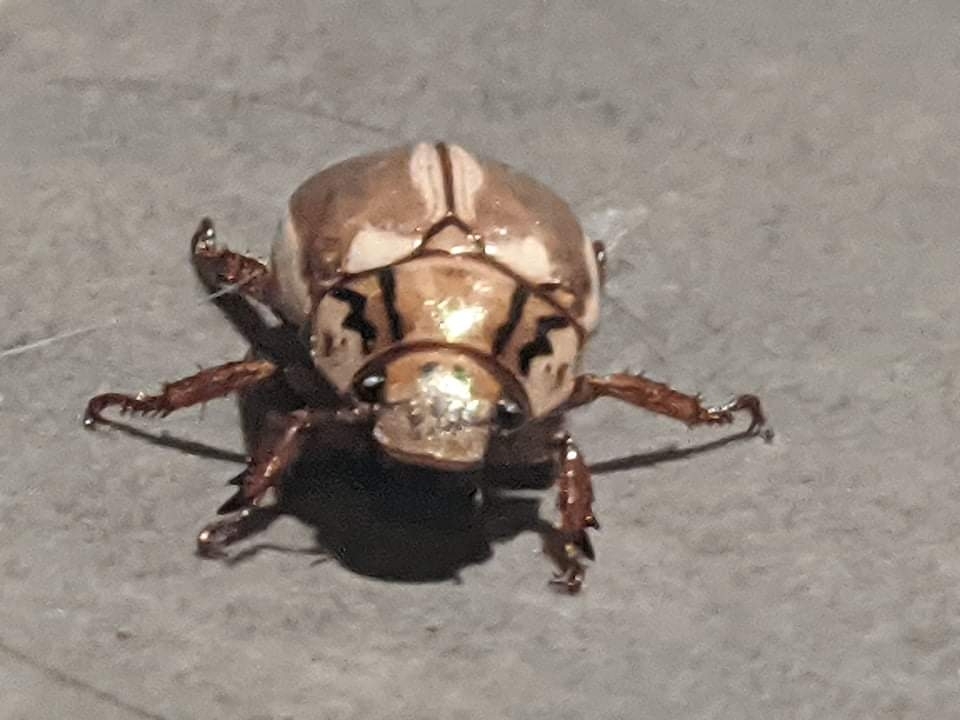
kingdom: Animalia
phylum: Arthropoda
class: Insecta
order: Coleoptera
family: Scarabaeidae
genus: Anoplognathus
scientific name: Anoplognathus abnormis
